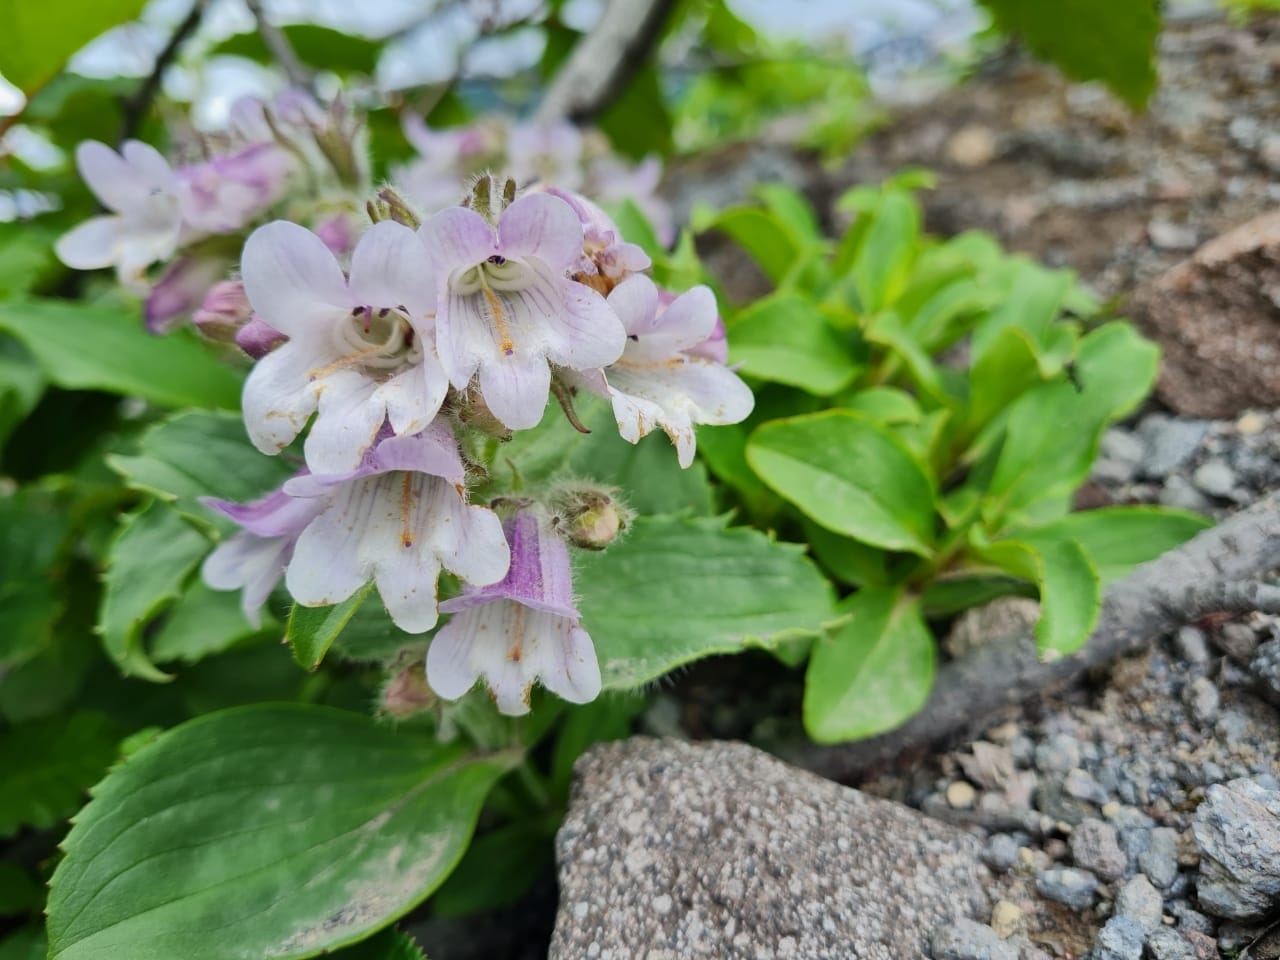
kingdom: Plantae
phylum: Tracheophyta
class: Magnoliopsida
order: Lamiales
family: Plantaginaceae
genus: Pennellianthus
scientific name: Pennellianthus frutescens
